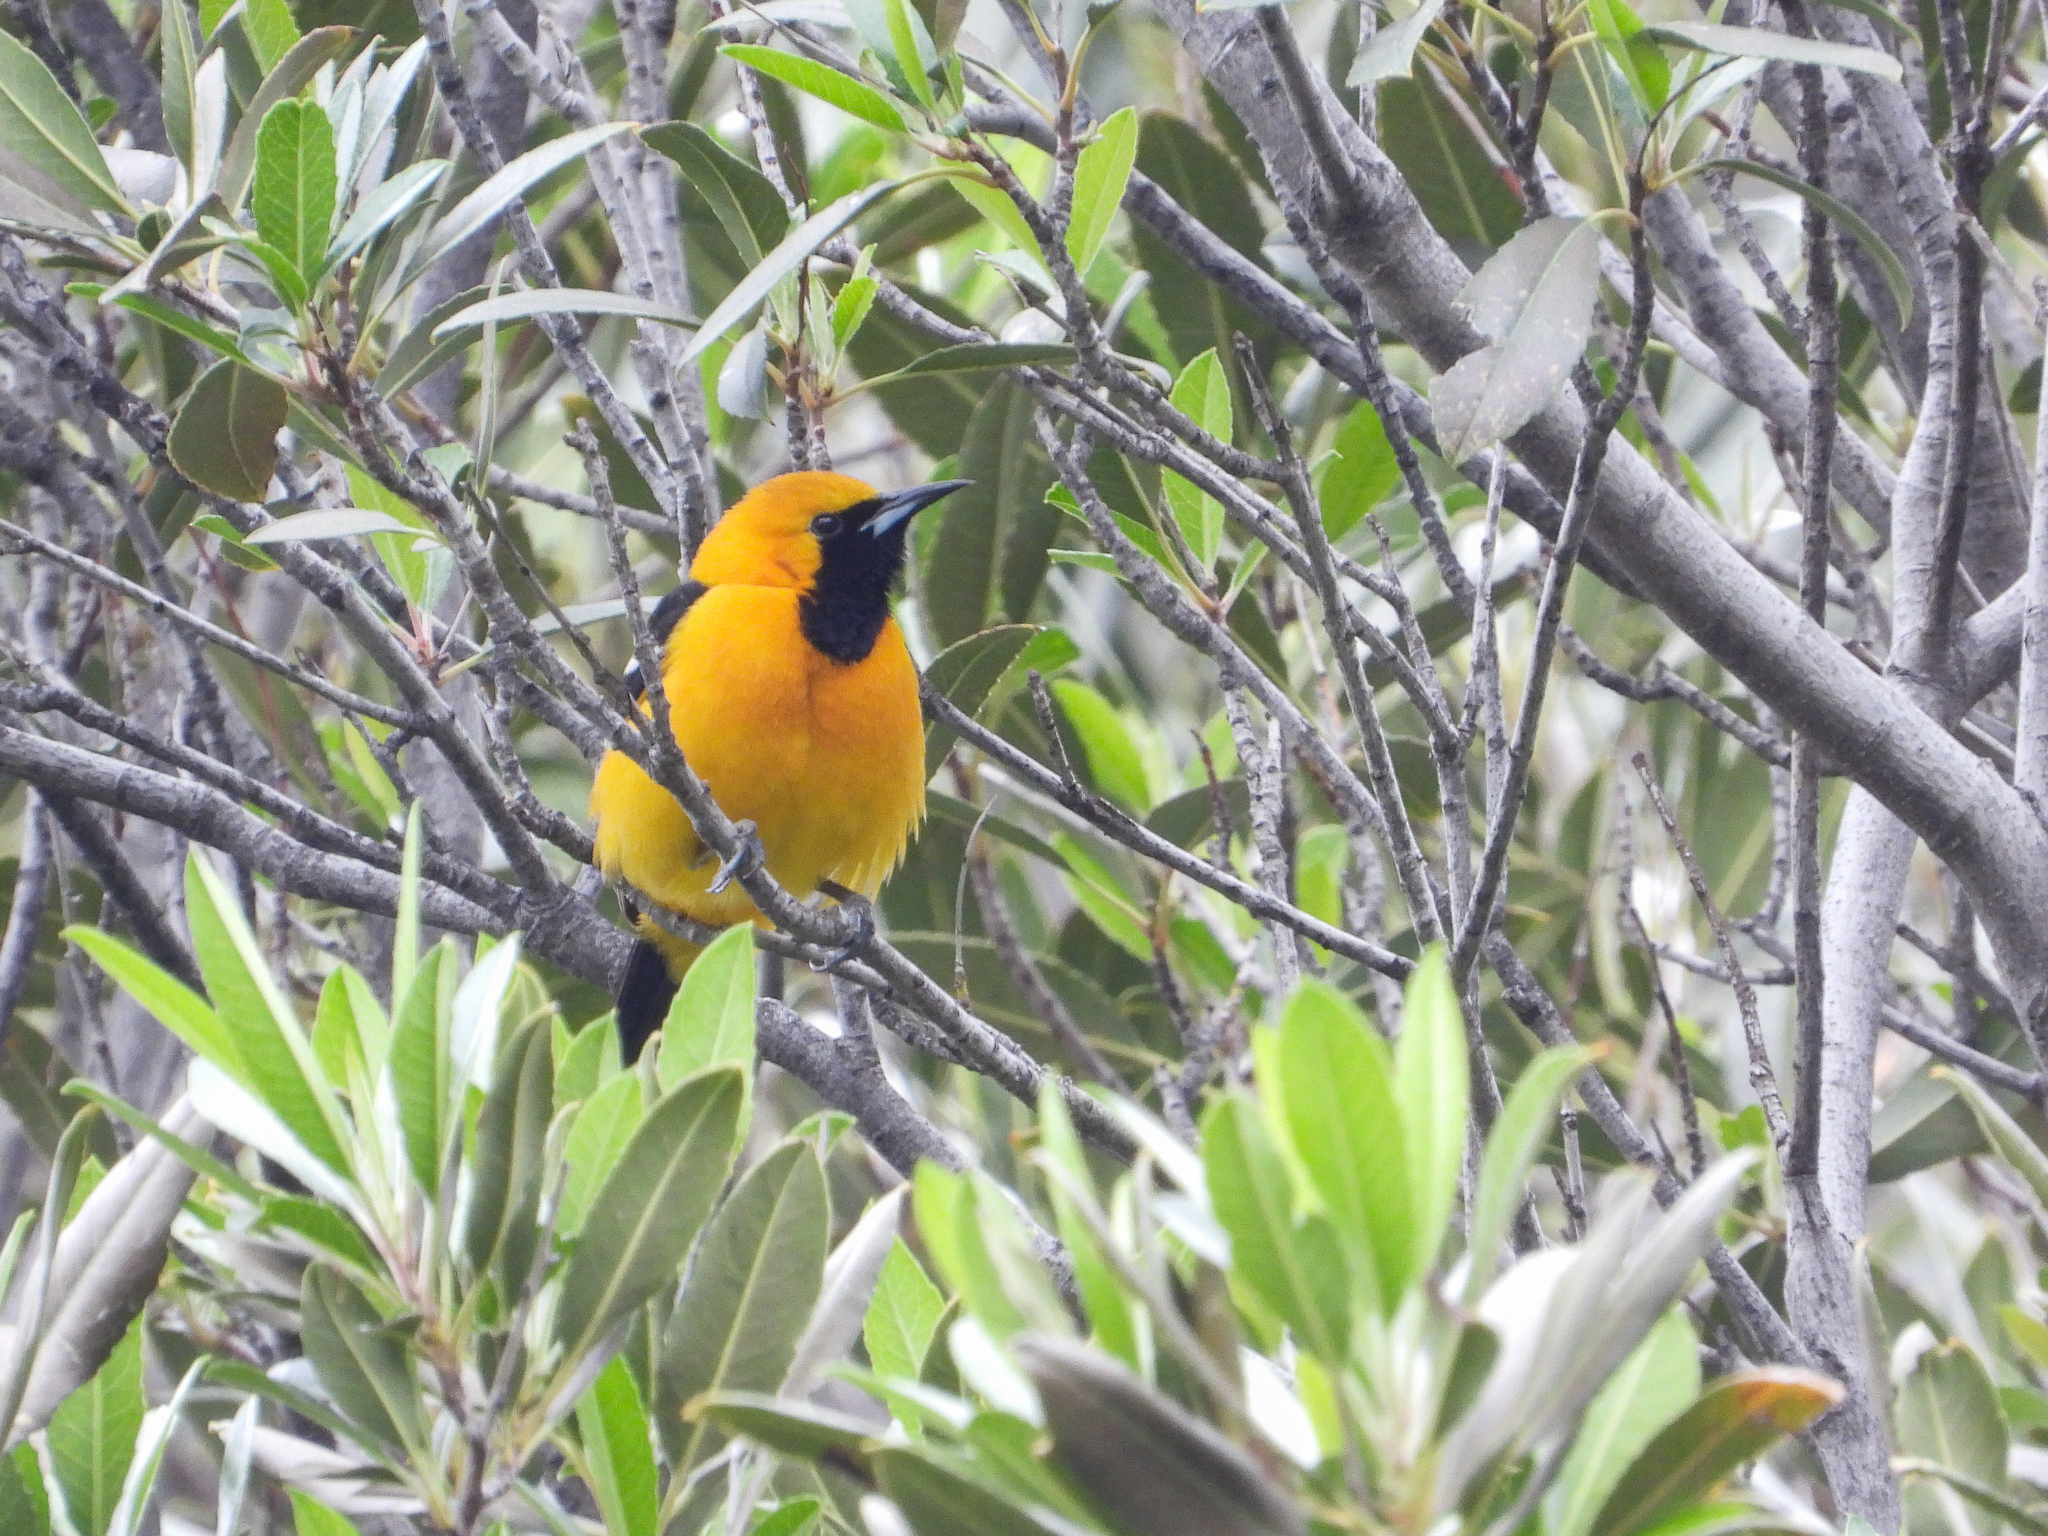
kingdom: Animalia
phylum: Chordata
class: Aves
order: Passeriformes
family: Icteridae
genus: Icterus
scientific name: Icterus cucullatus
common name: Hooded oriole
